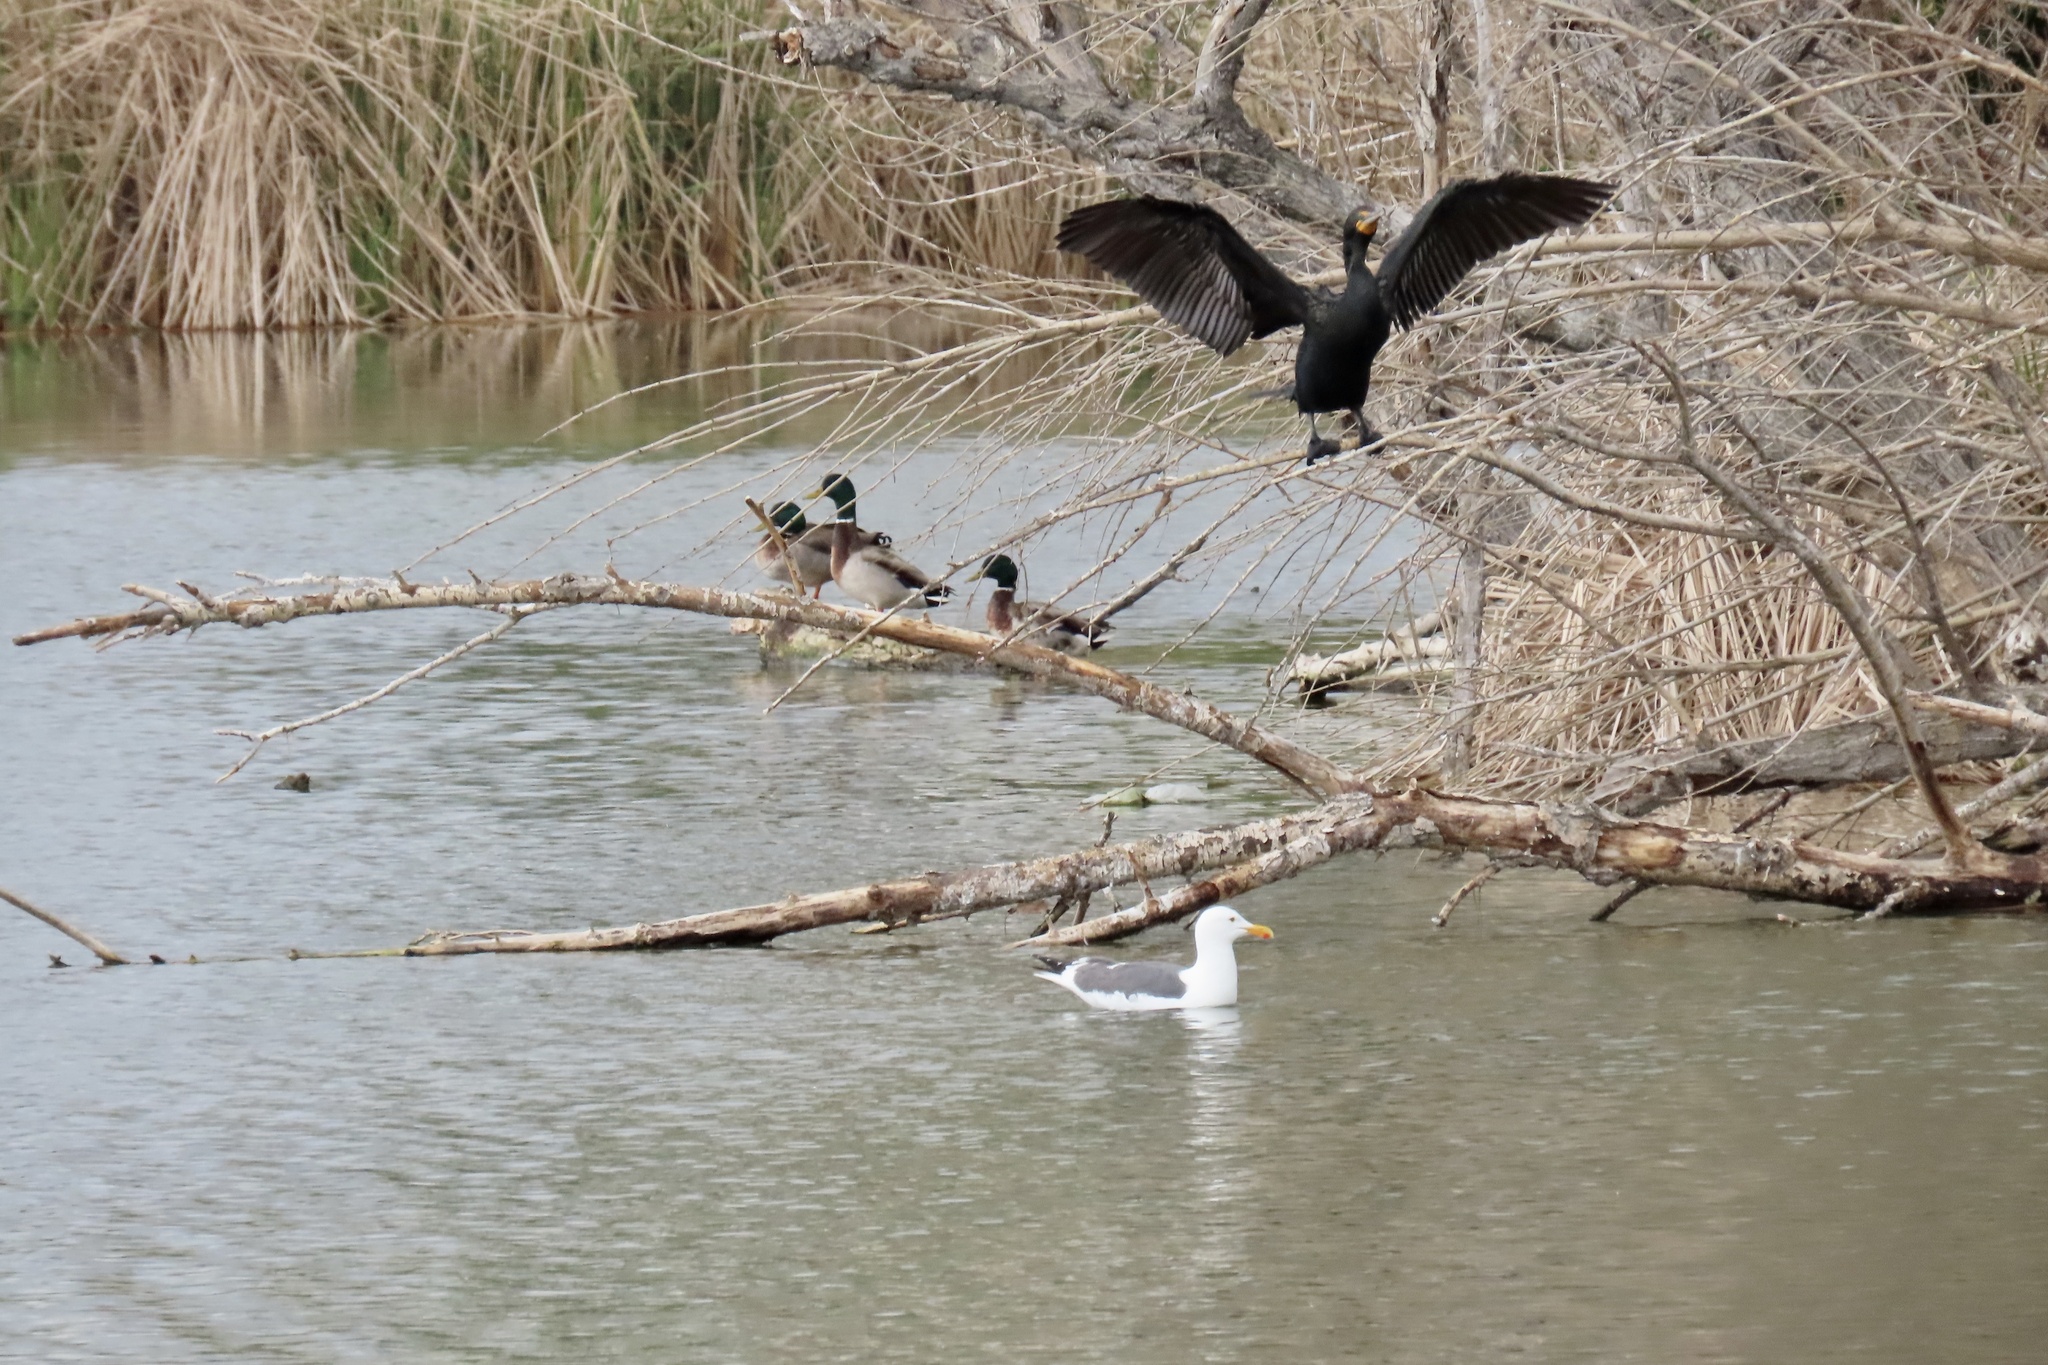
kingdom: Animalia
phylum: Chordata
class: Aves
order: Suliformes
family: Phalacrocoracidae
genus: Phalacrocorax
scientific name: Phalacrocorax auritus
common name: Double-crested cormorant
